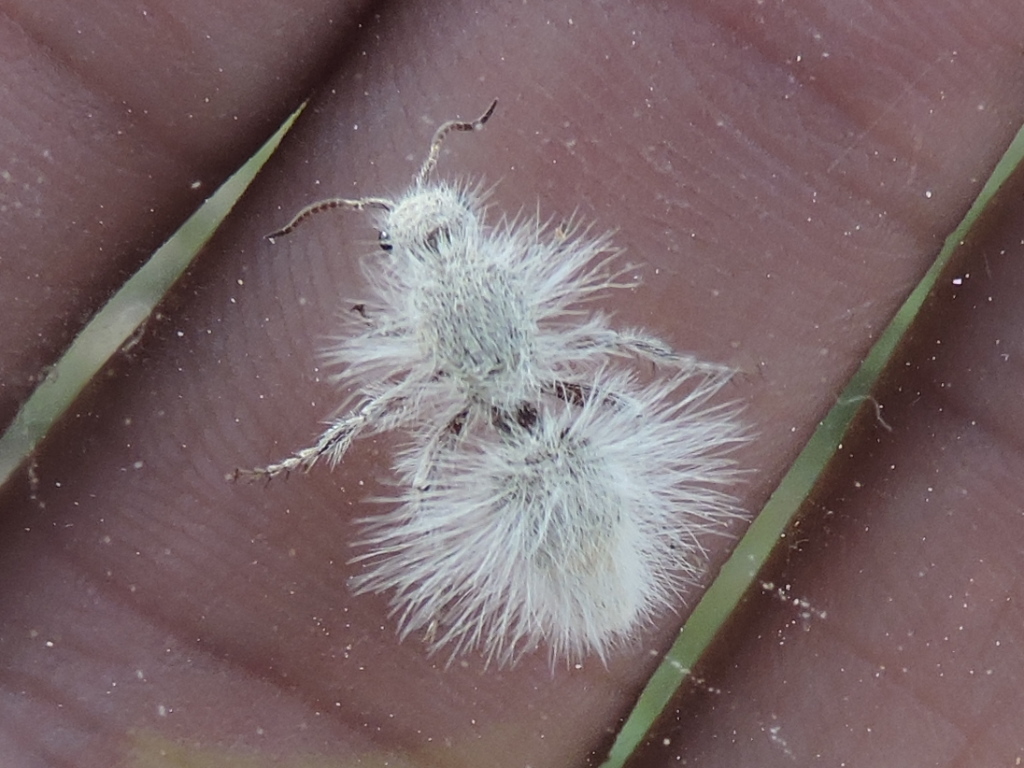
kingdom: Animalia
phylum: Arthropoda
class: Insecta
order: Hymenoptera
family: Mutillidae
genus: Dasymutilla
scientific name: Dasymutilla pseudopappus
